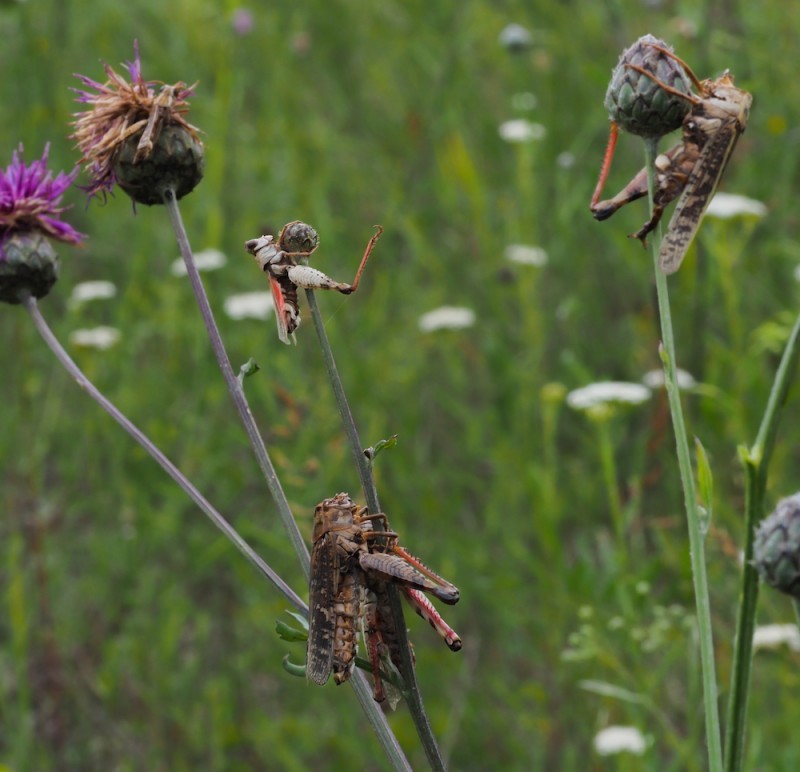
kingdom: Fungi
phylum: Entomophthoromycota
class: Entomophthoromycetes
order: Entomophthorales
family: Entomophthoraceae
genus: Entomophaga
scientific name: Entomophaga grylli
